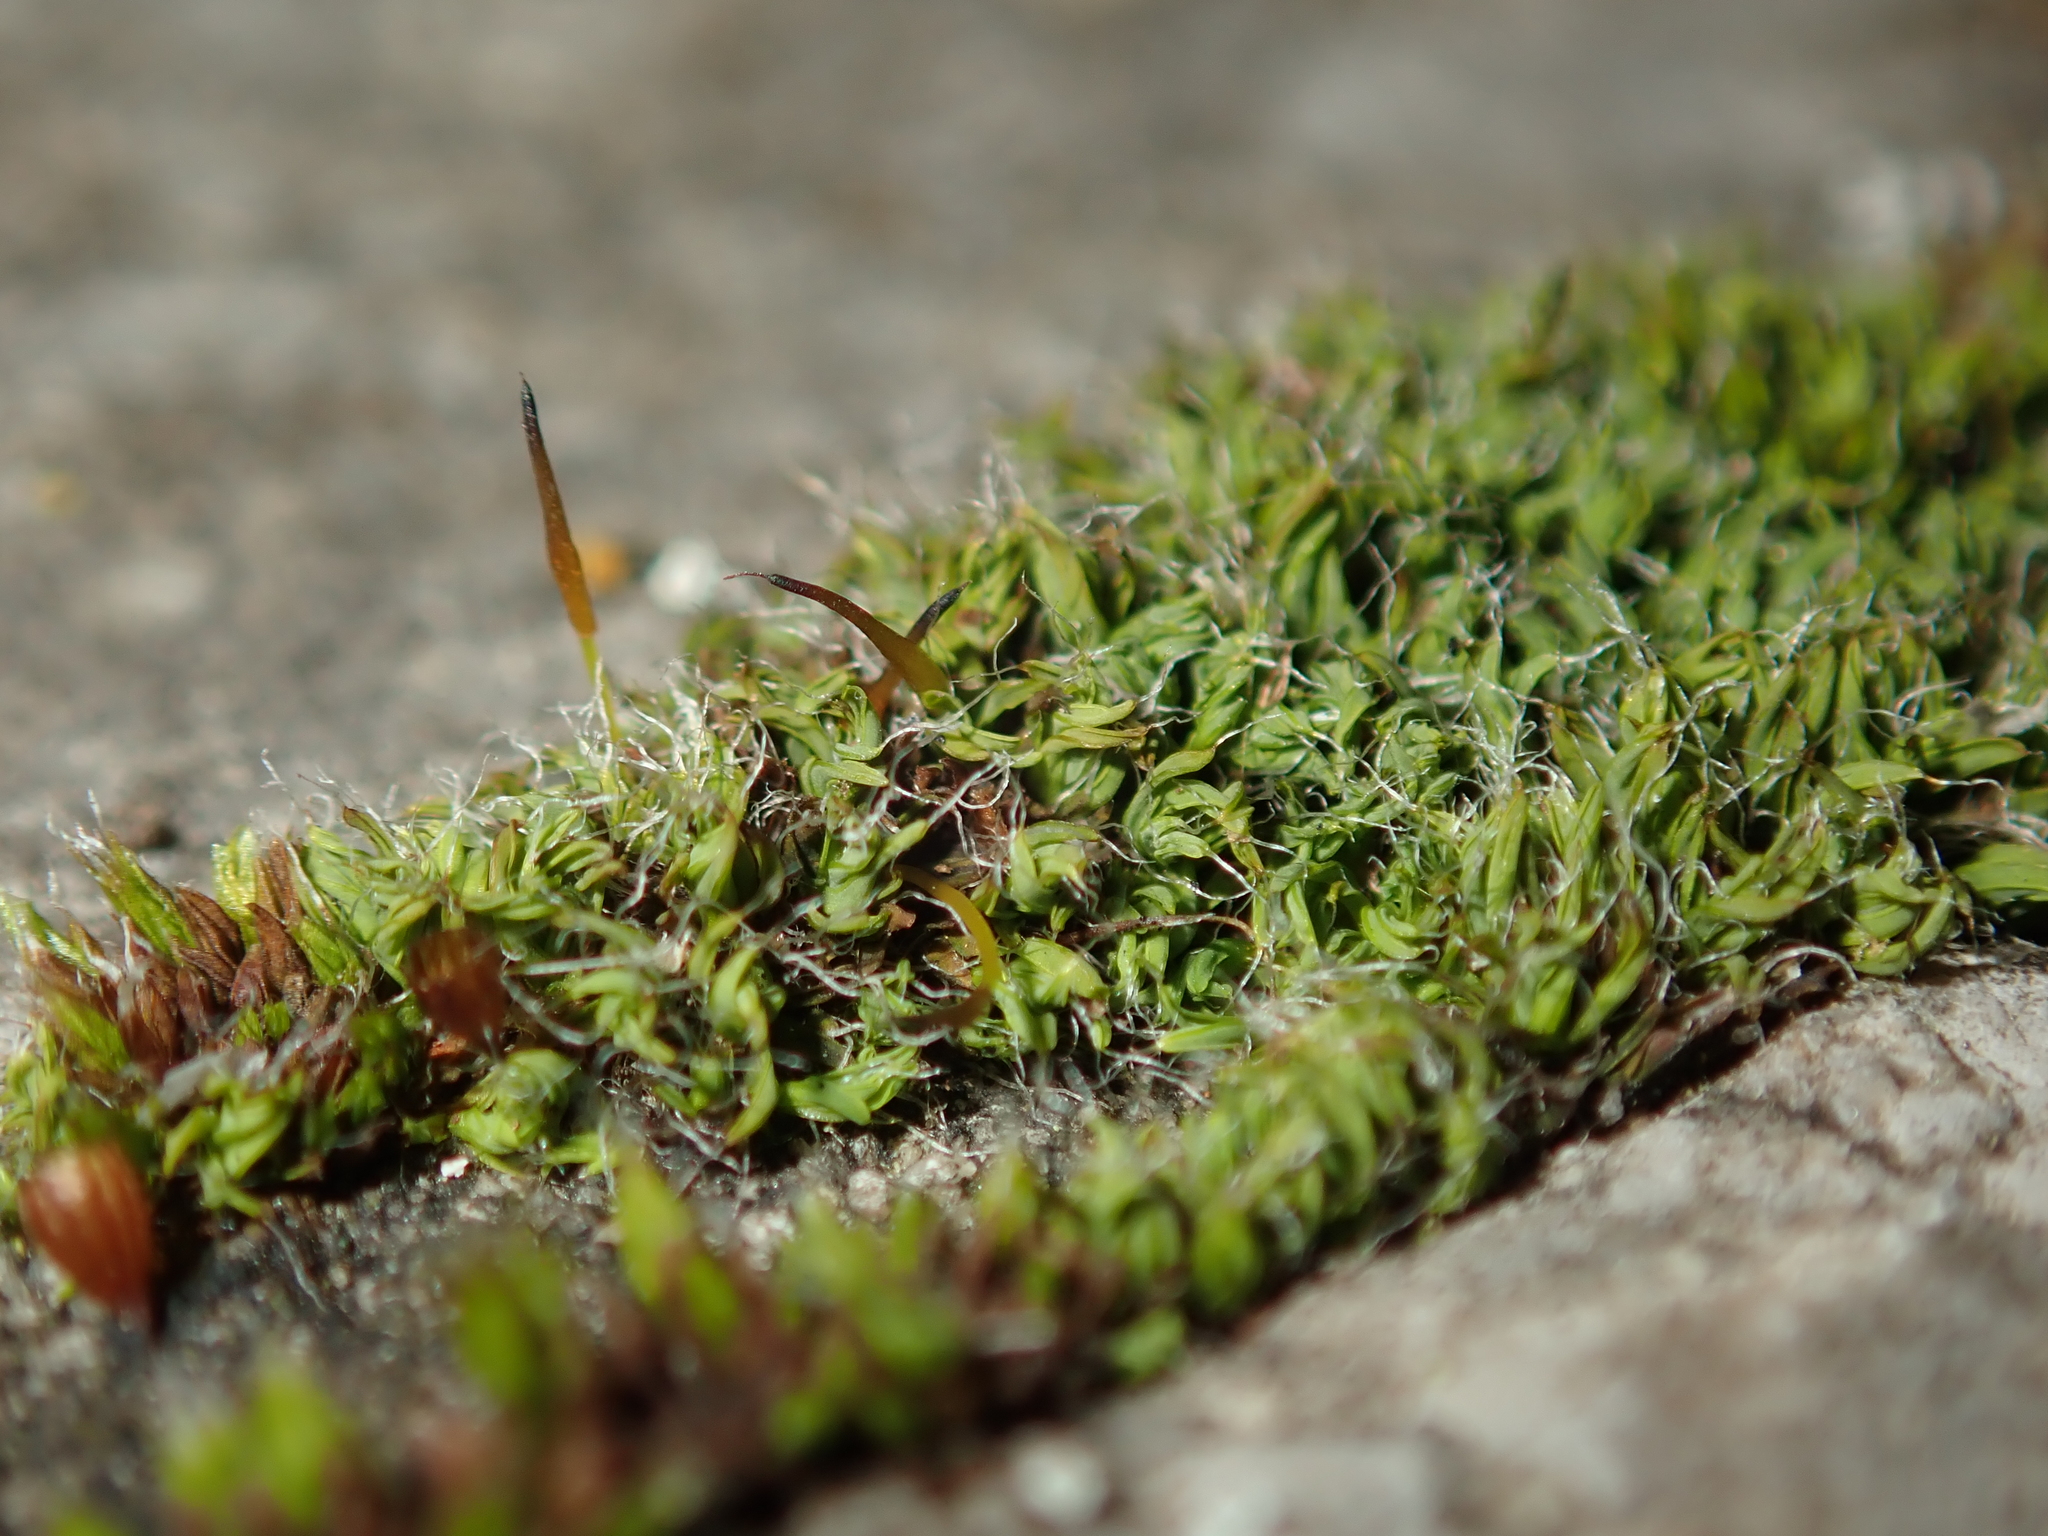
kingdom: Plantae
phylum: Bryophyta
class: Bryopsida
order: Pottiales
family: Pottiaceae
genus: Tortula
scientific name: Tortula muralis
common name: Wall screw-moss
